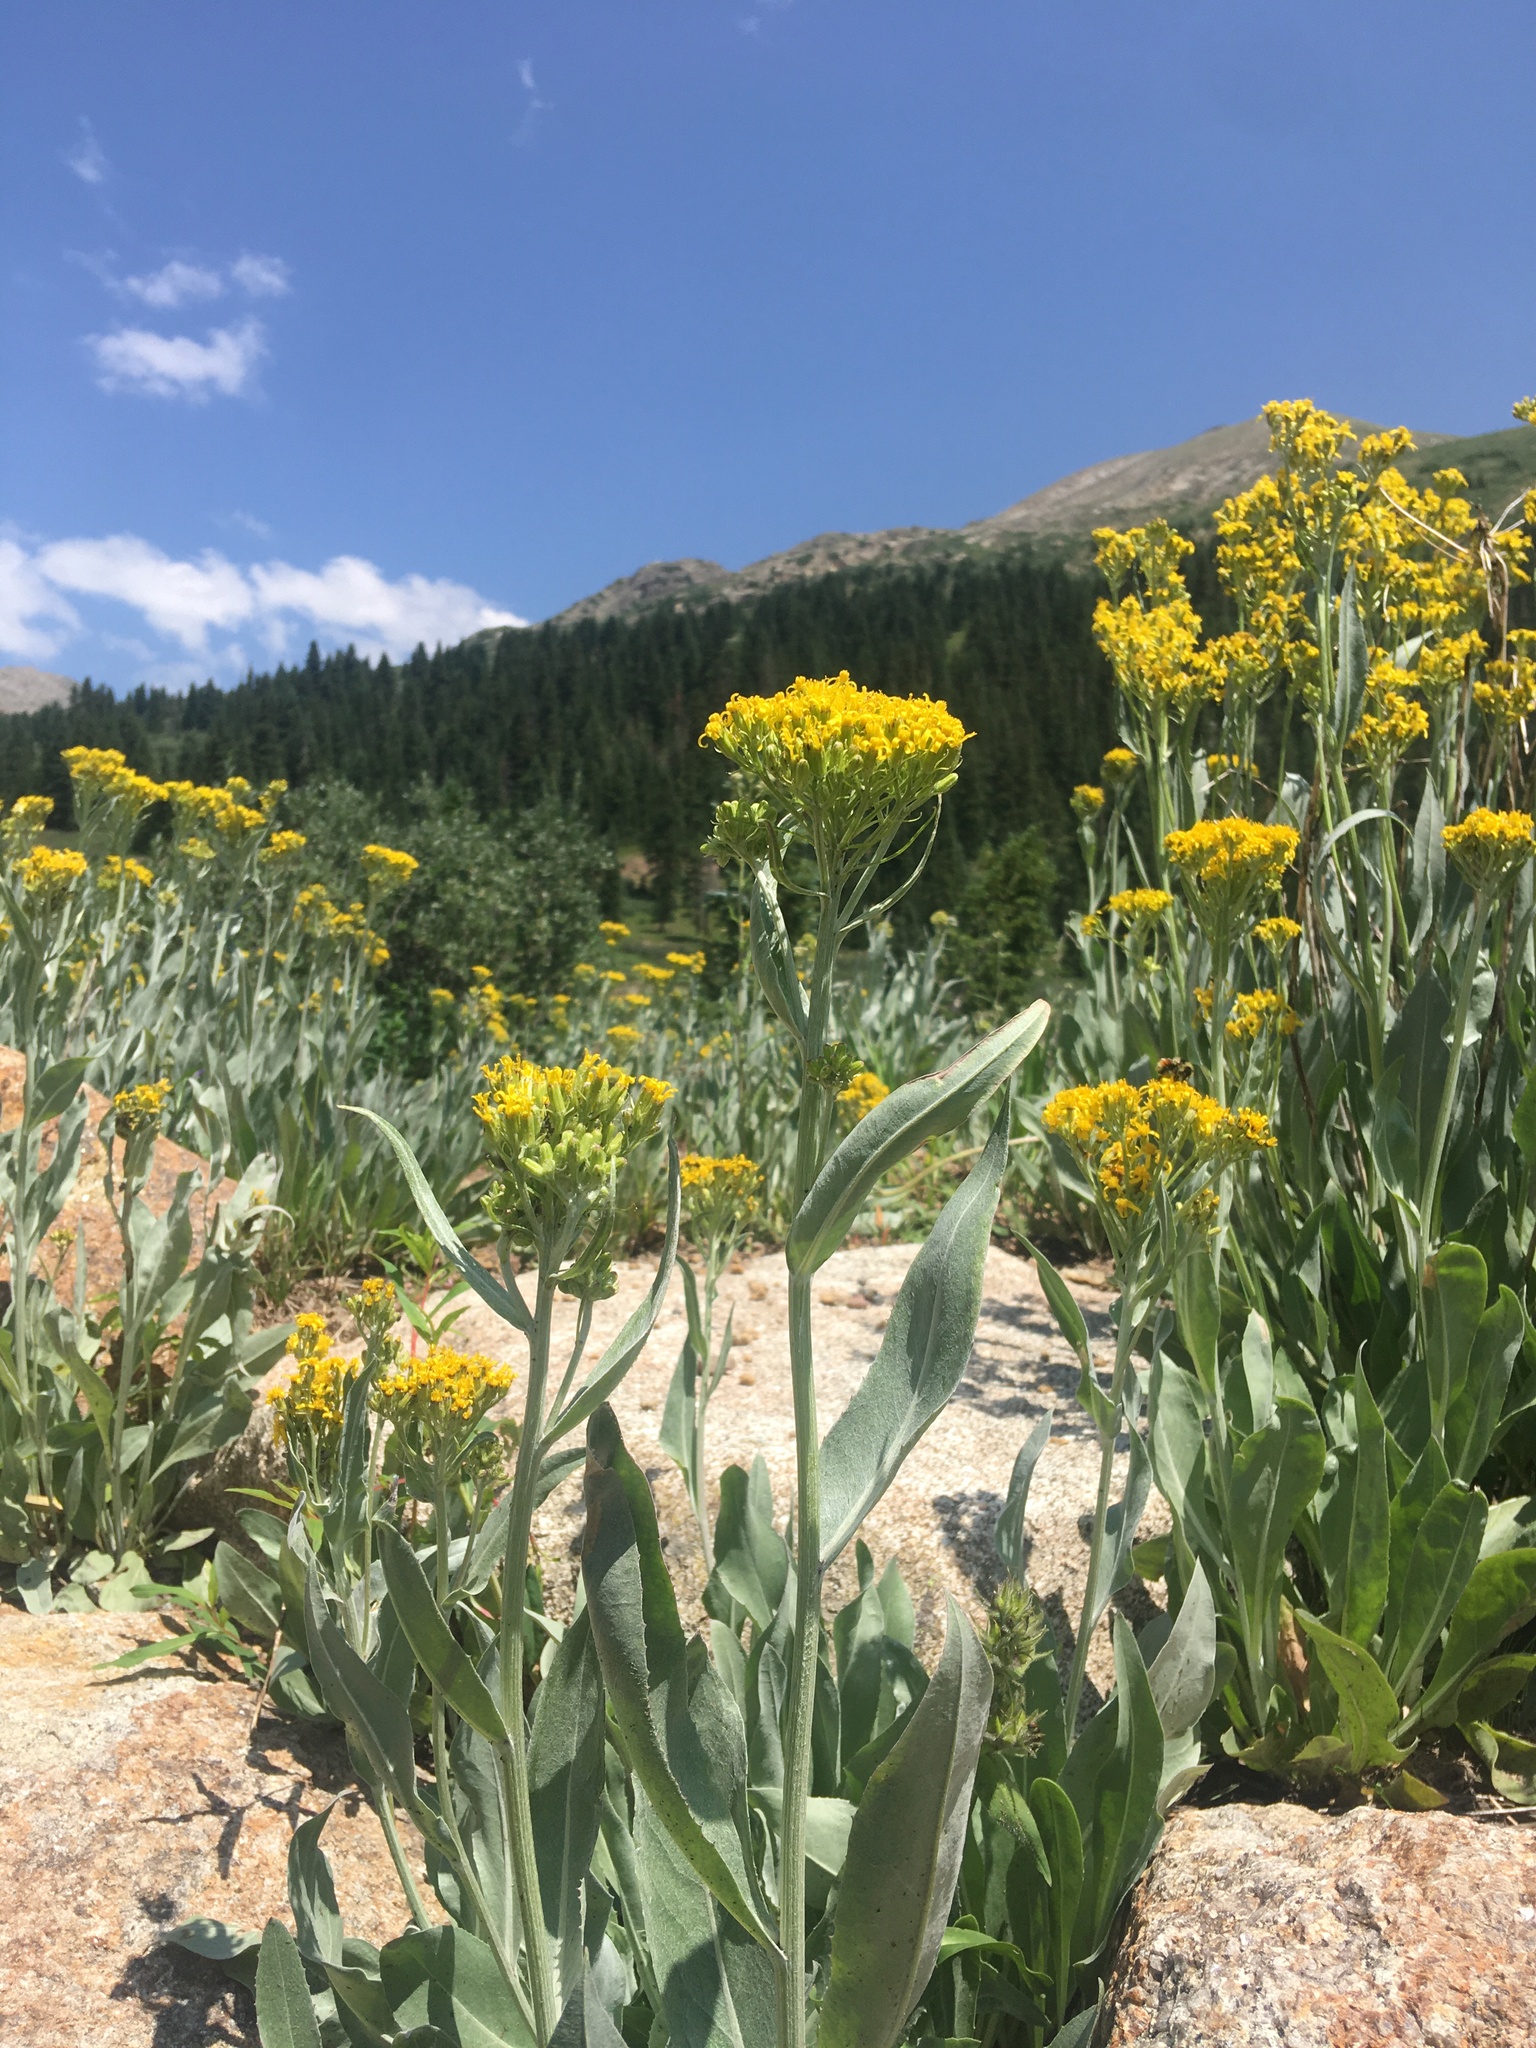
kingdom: Plantae
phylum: Tracheophyta
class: Magnoliopsida
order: Asterales
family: Asteraceae
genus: Senecio
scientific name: Senecio atratus
